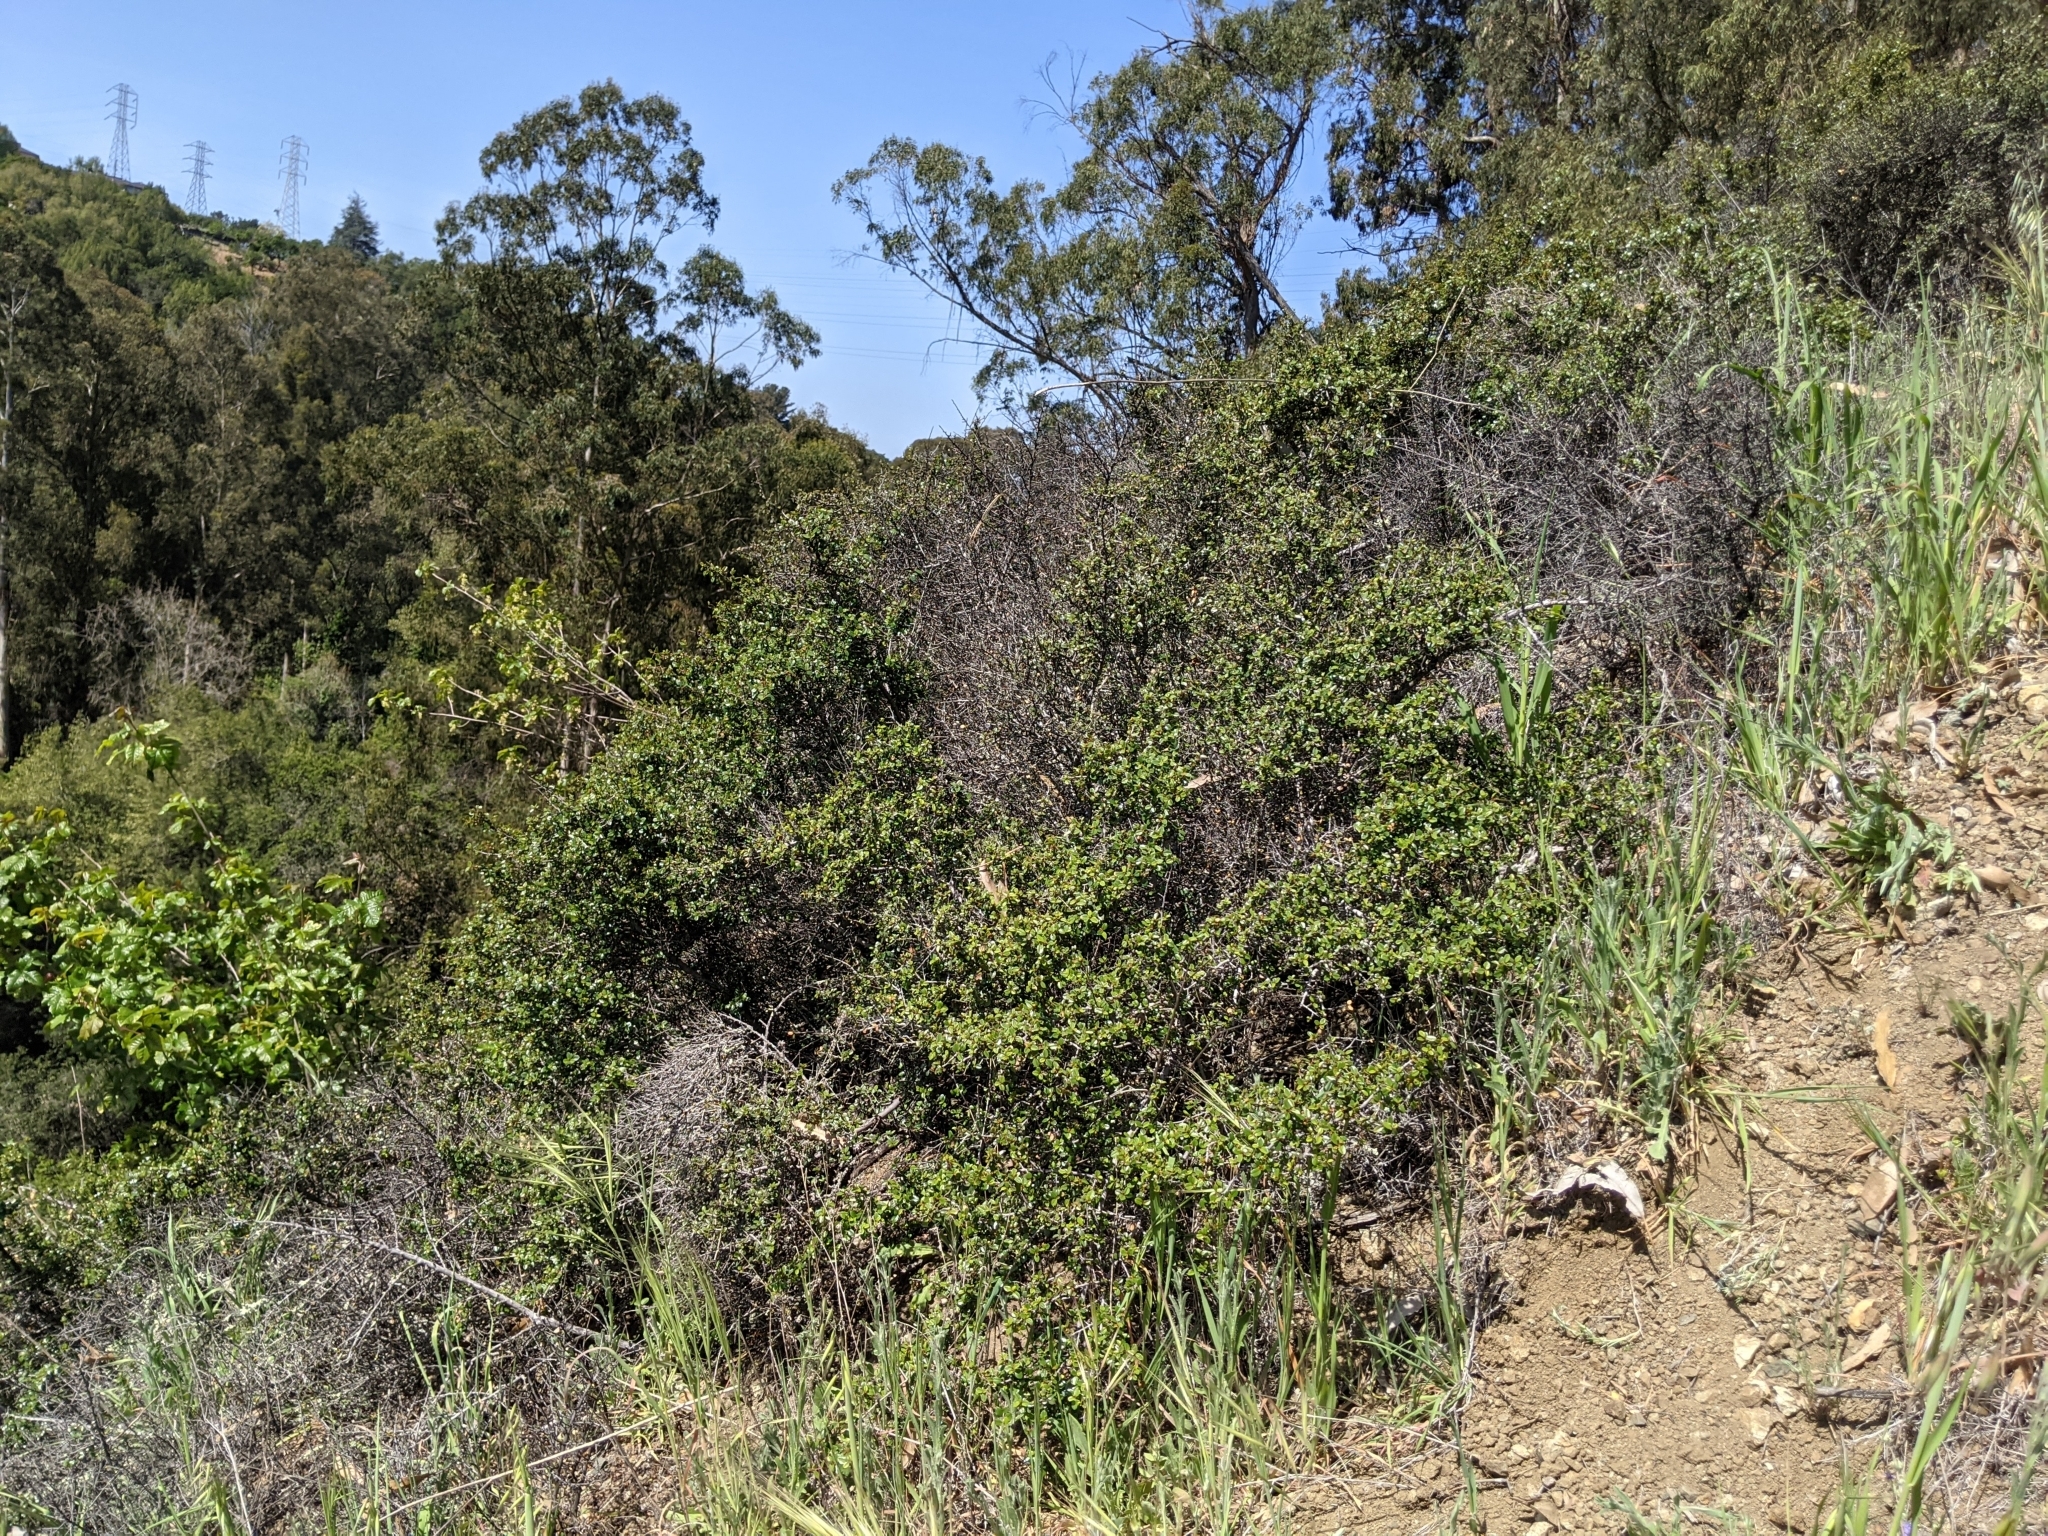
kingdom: Plantae
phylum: Tracheophyta
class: Magnoliopsida
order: Rosales
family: Rhamnaceae
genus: Endotropis
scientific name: Endotropis crocea
